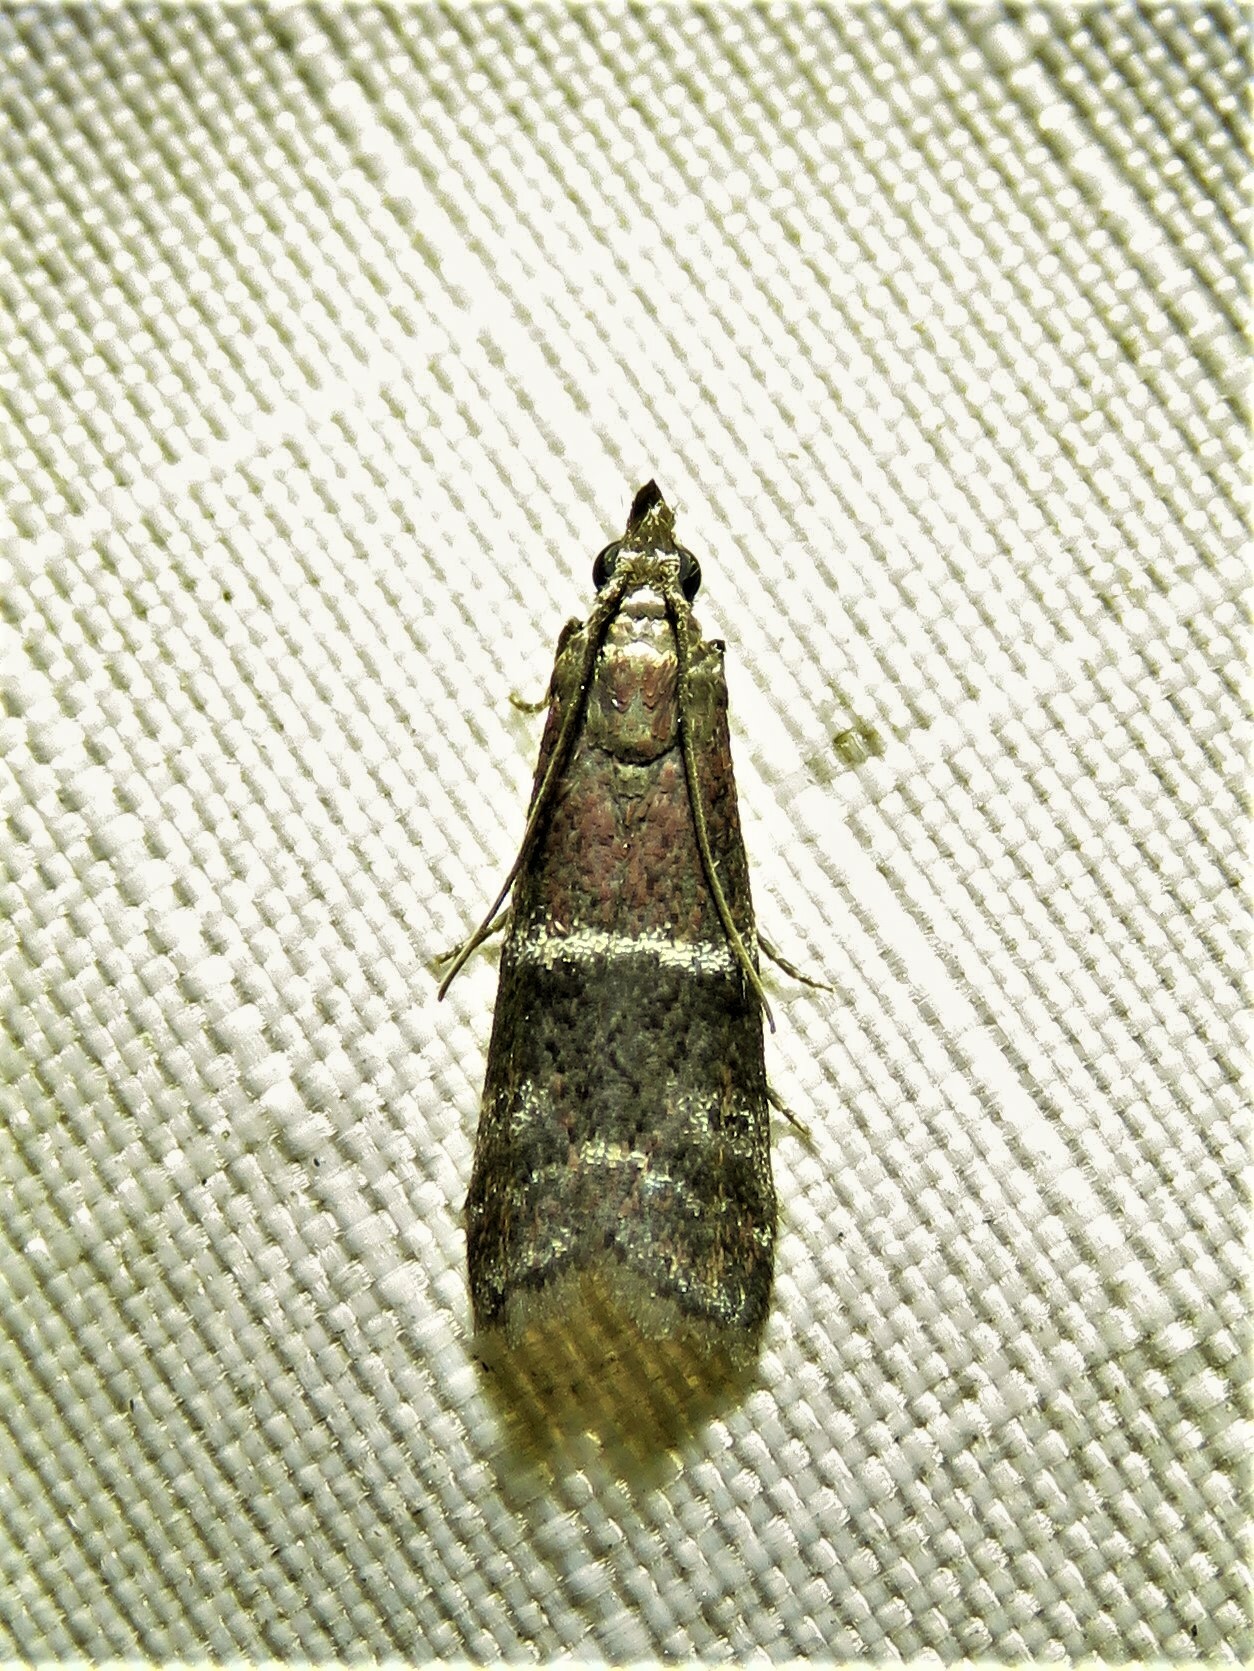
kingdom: Animalia
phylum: Arthropoda
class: Insecta
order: Lepidoptera
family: Pyralidae
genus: Moodna
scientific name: Moodna ostrinella
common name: Darker moodna moth
